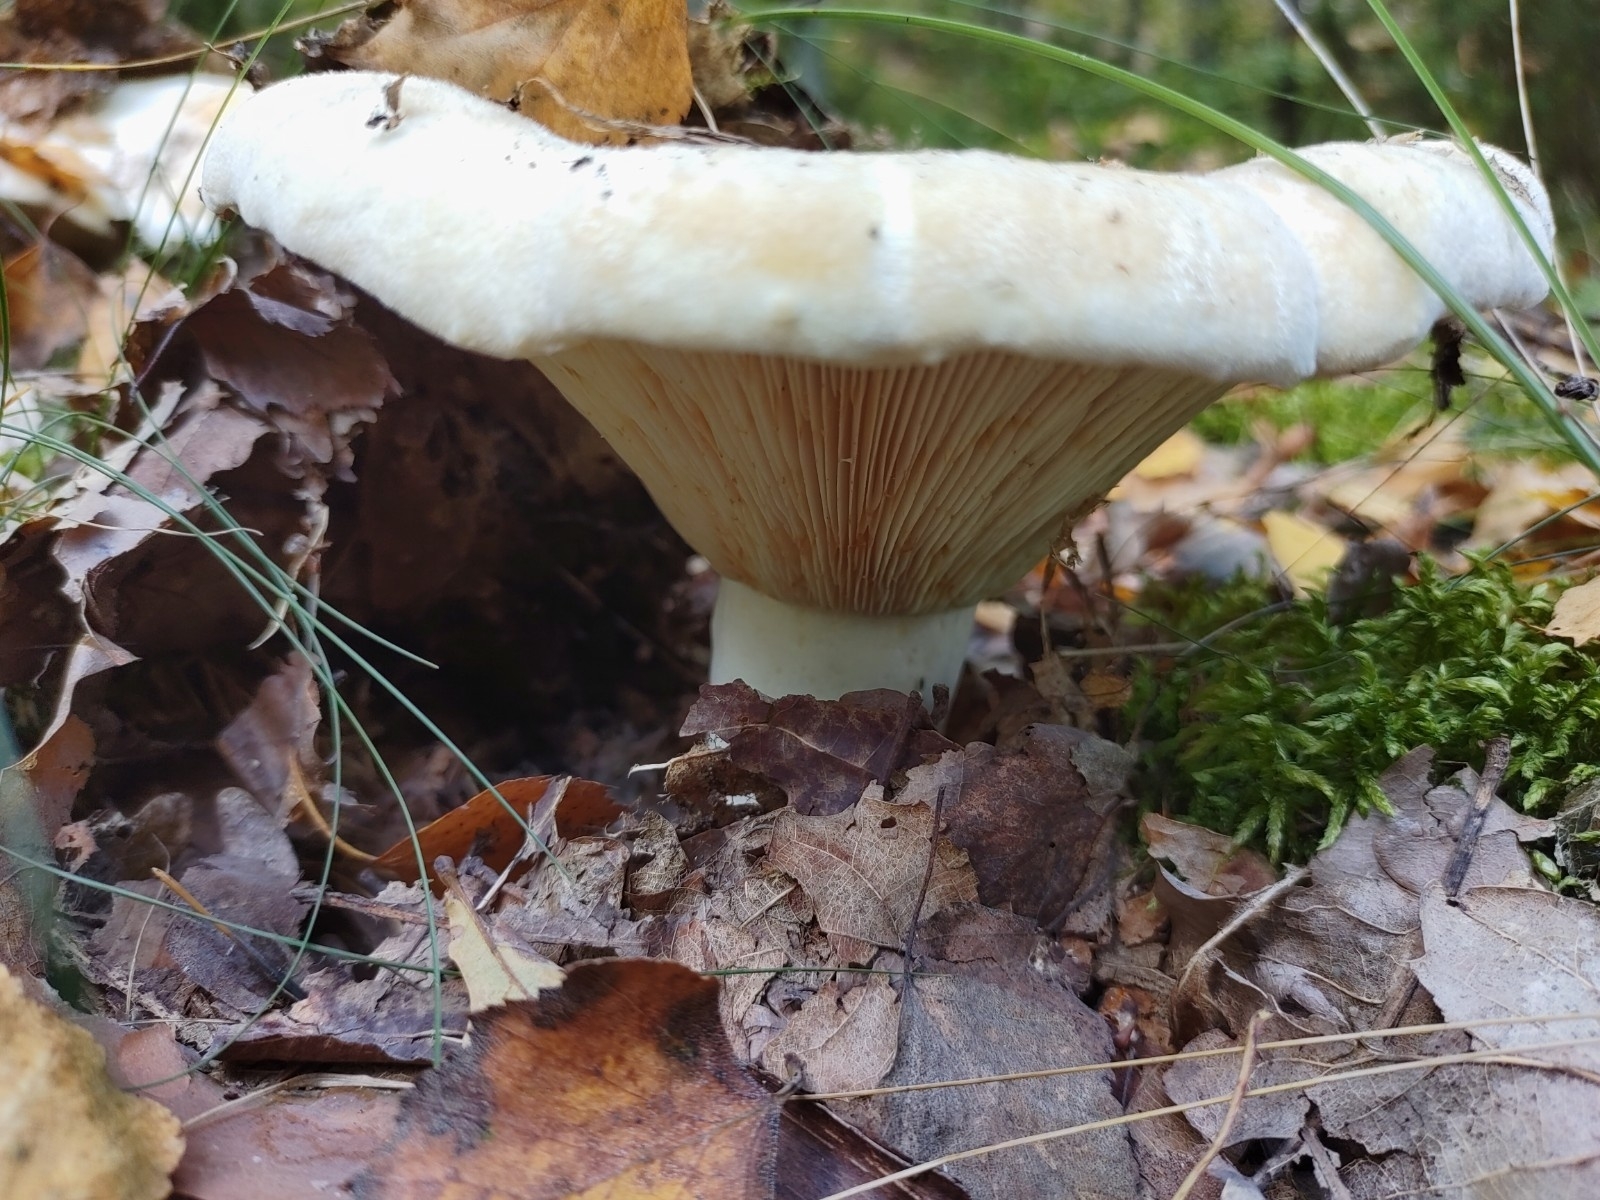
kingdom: Fungi
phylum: Basidiomycota
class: Agaricomycetes
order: Russulales
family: Russulaceae
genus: Lactifluus
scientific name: Lactifluus vellereus
